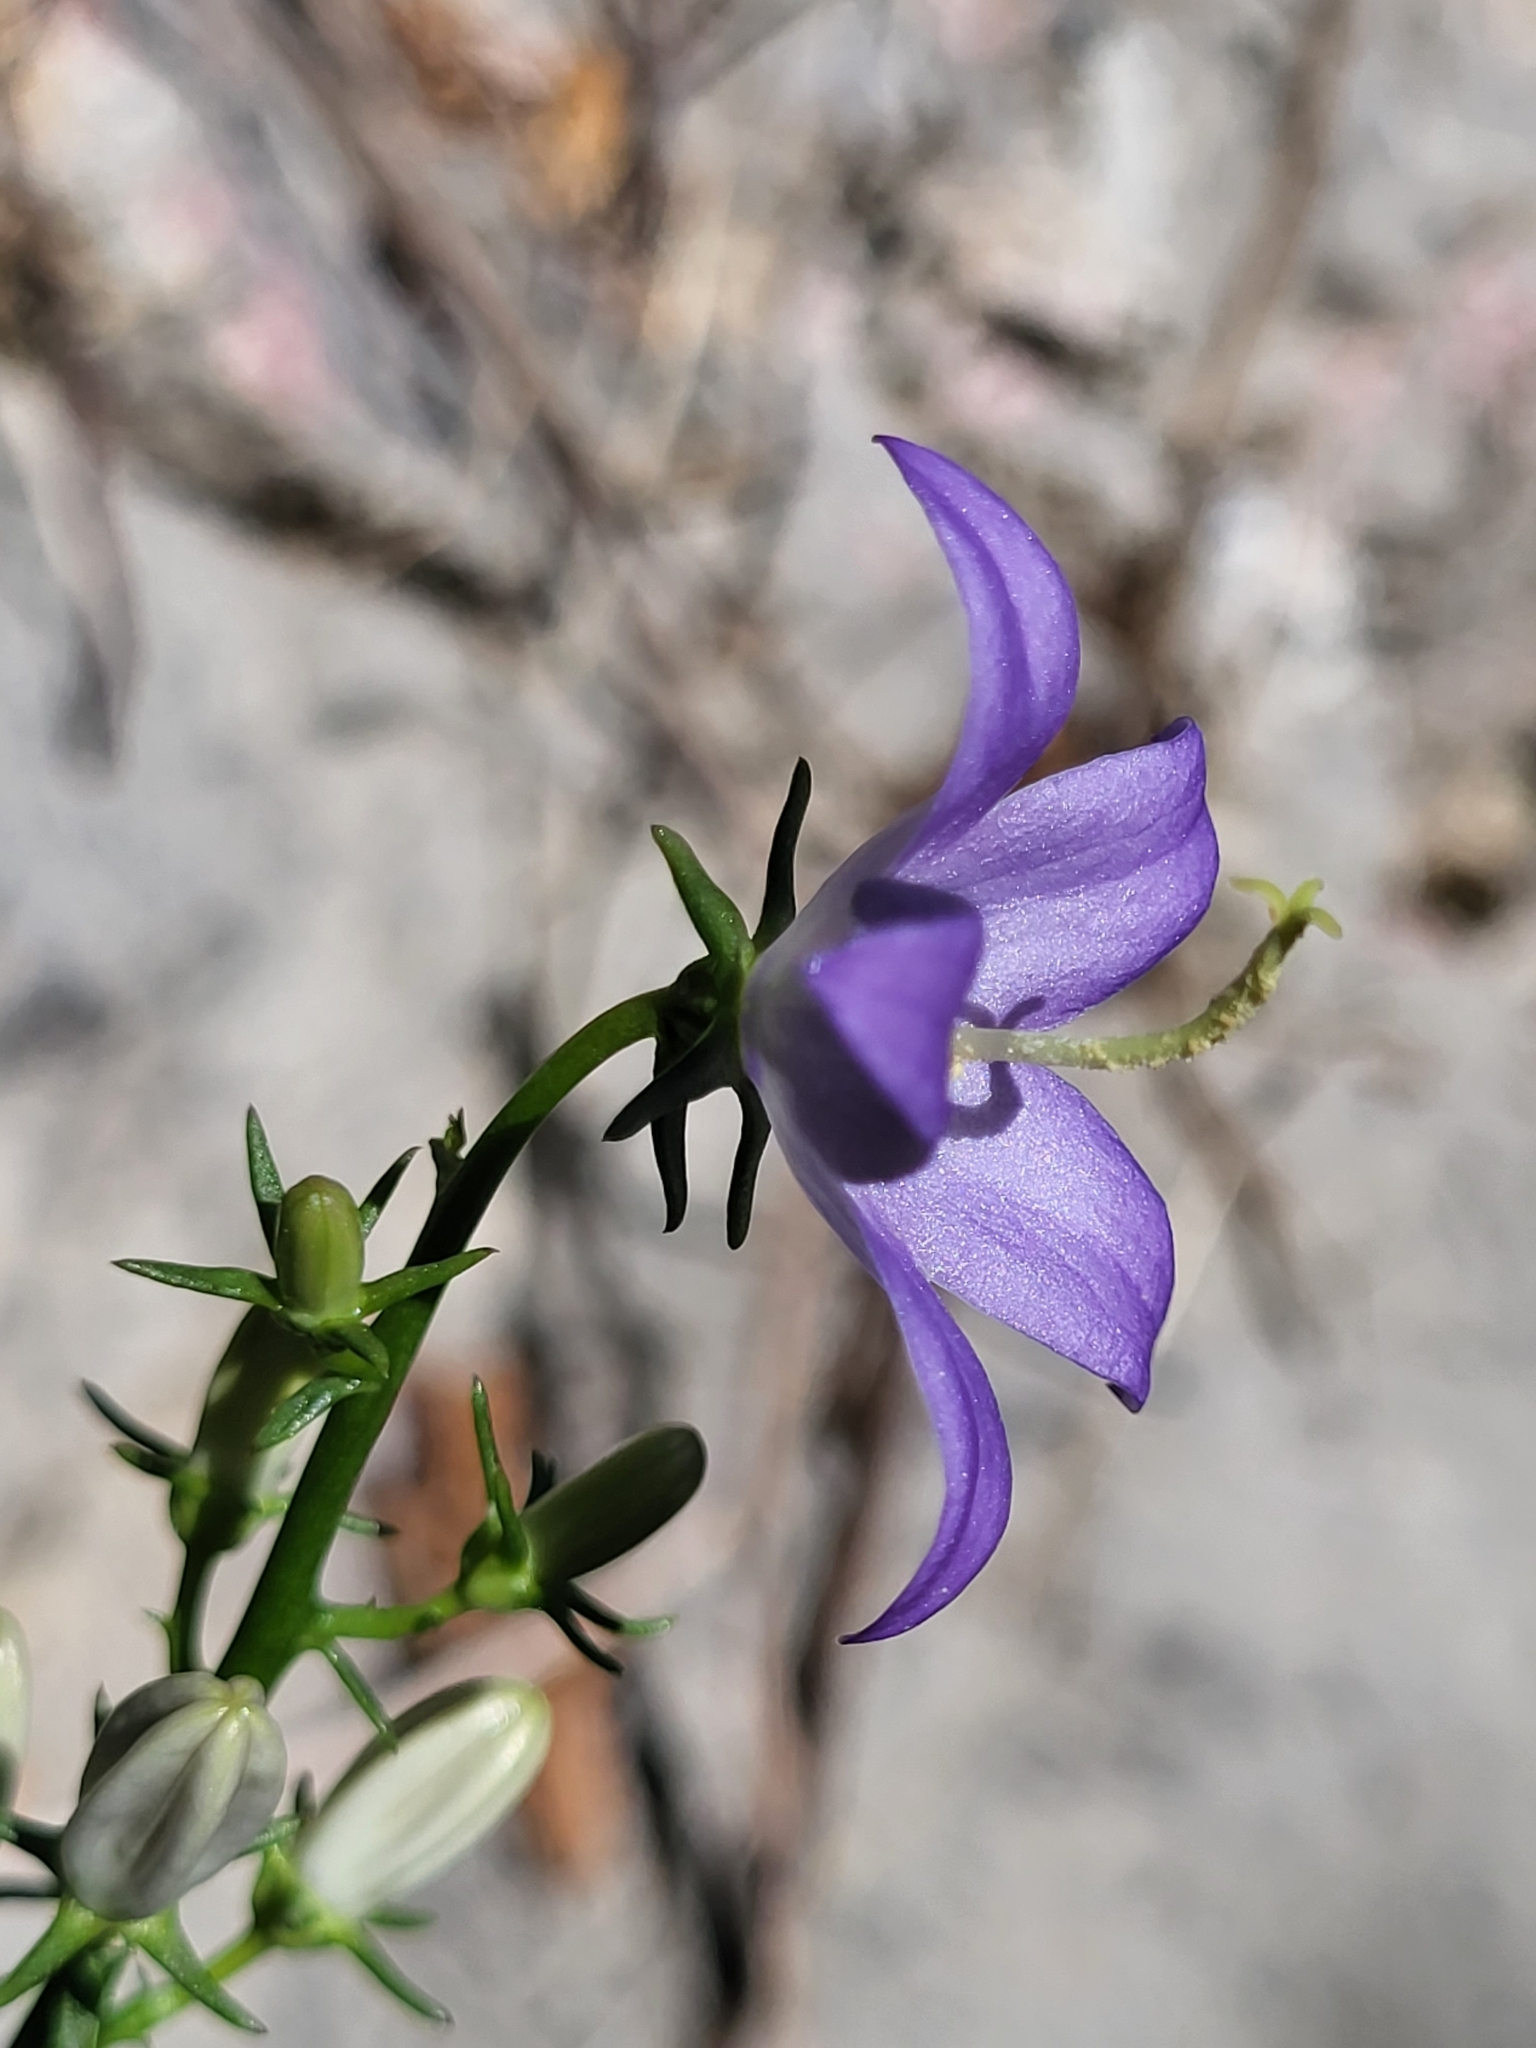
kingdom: Plantae
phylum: Tracheophyta
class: Magnoliopsida
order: Asterales
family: Campanulaceae
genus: Campanula
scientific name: Campanula pyramidalis
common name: Chimney bellflower
